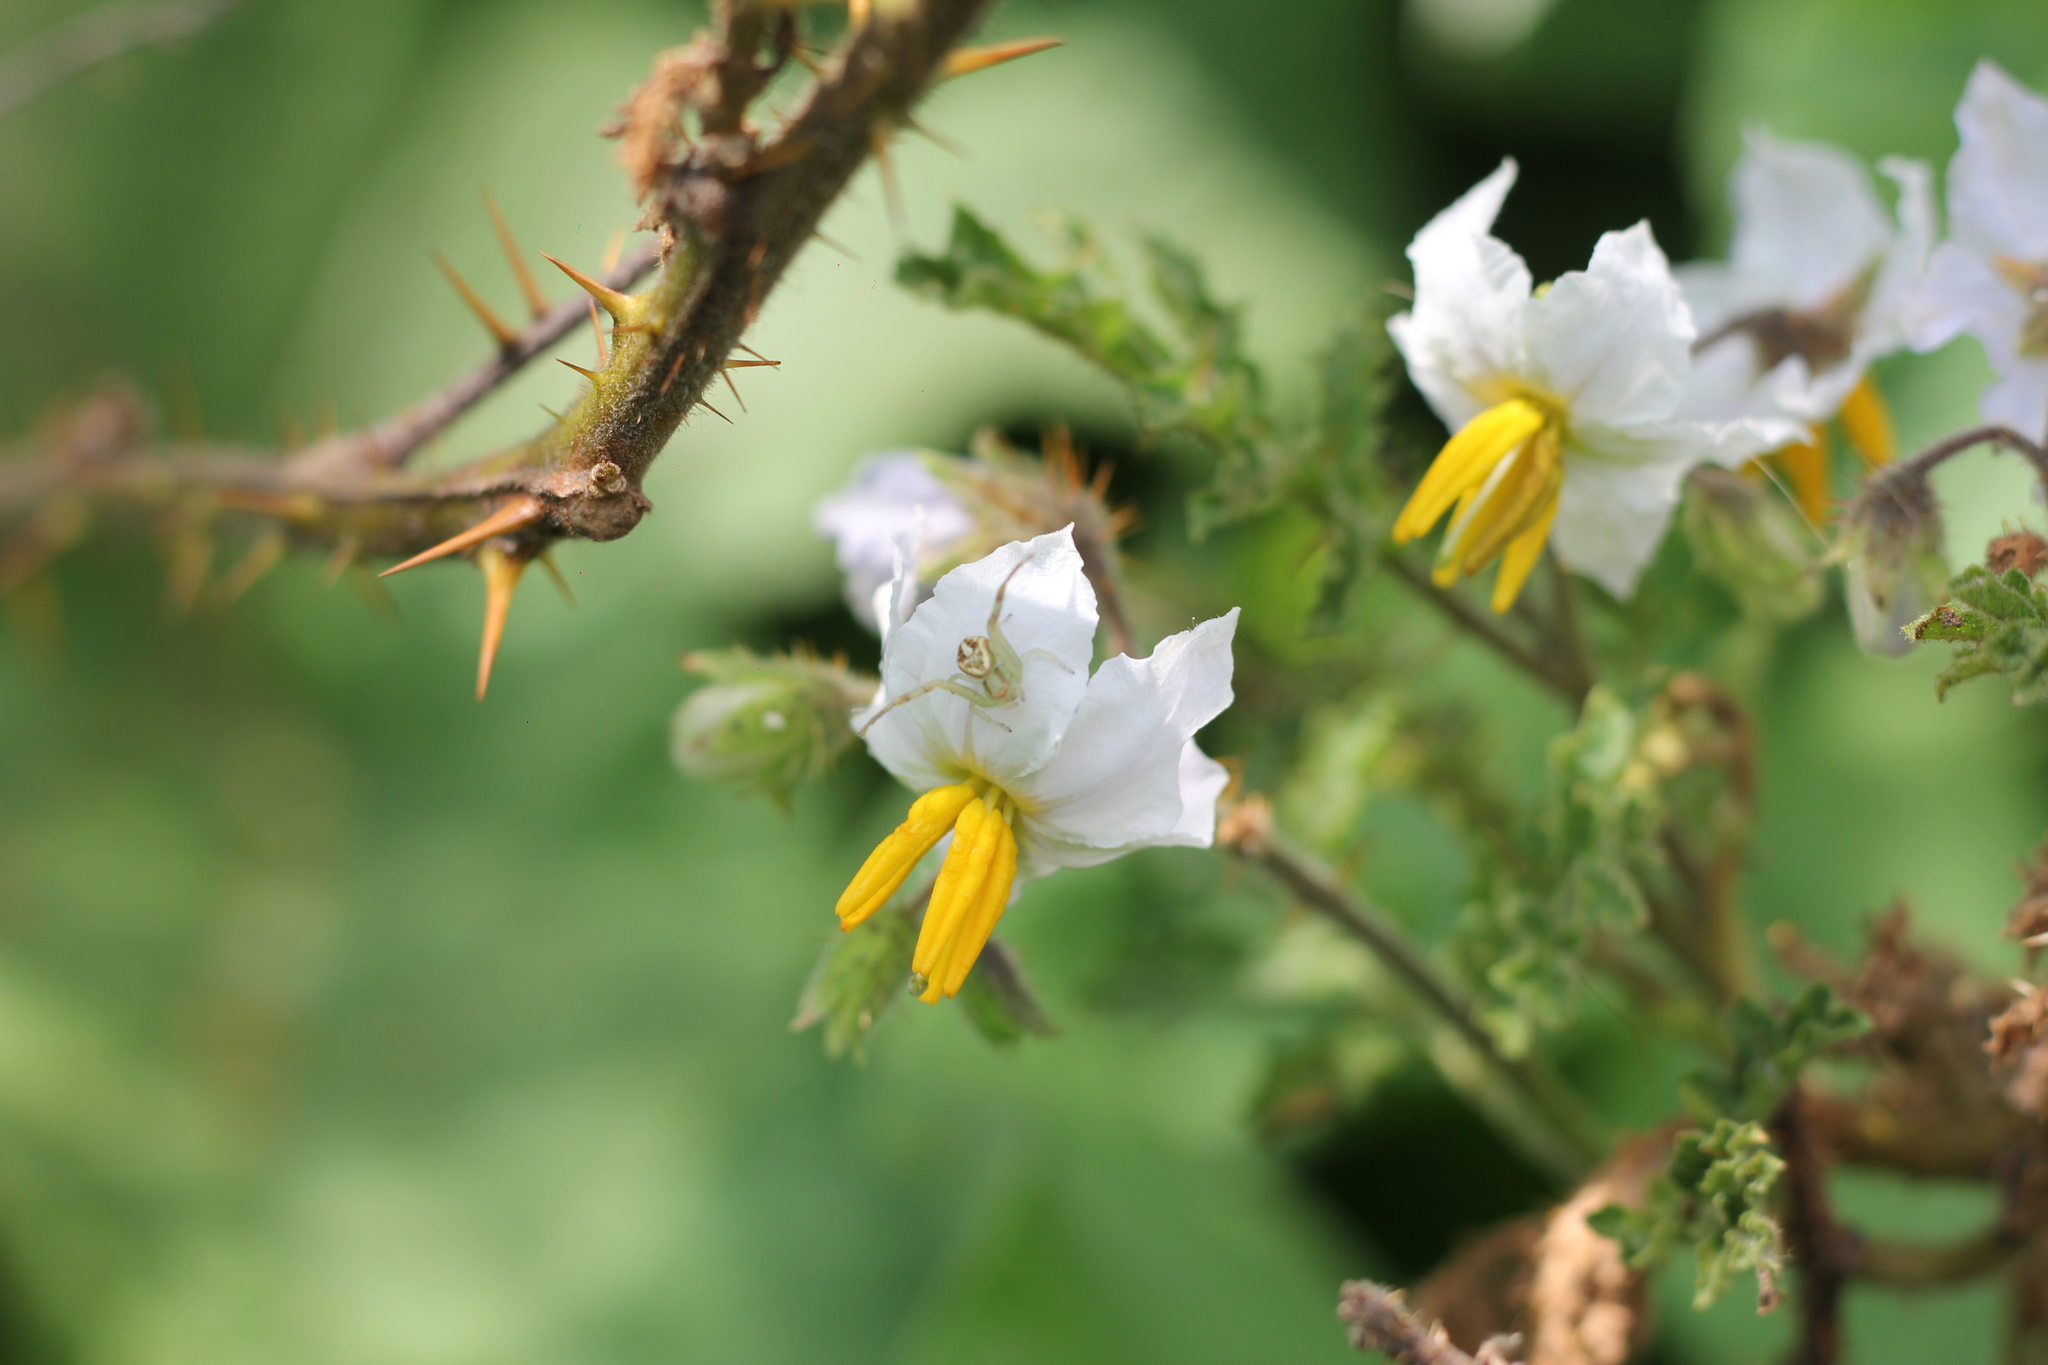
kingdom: Animalia
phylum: Arthropoda
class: Arachnida
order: Araneae
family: Thomisidae
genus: Misumenops
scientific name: Misumenops
